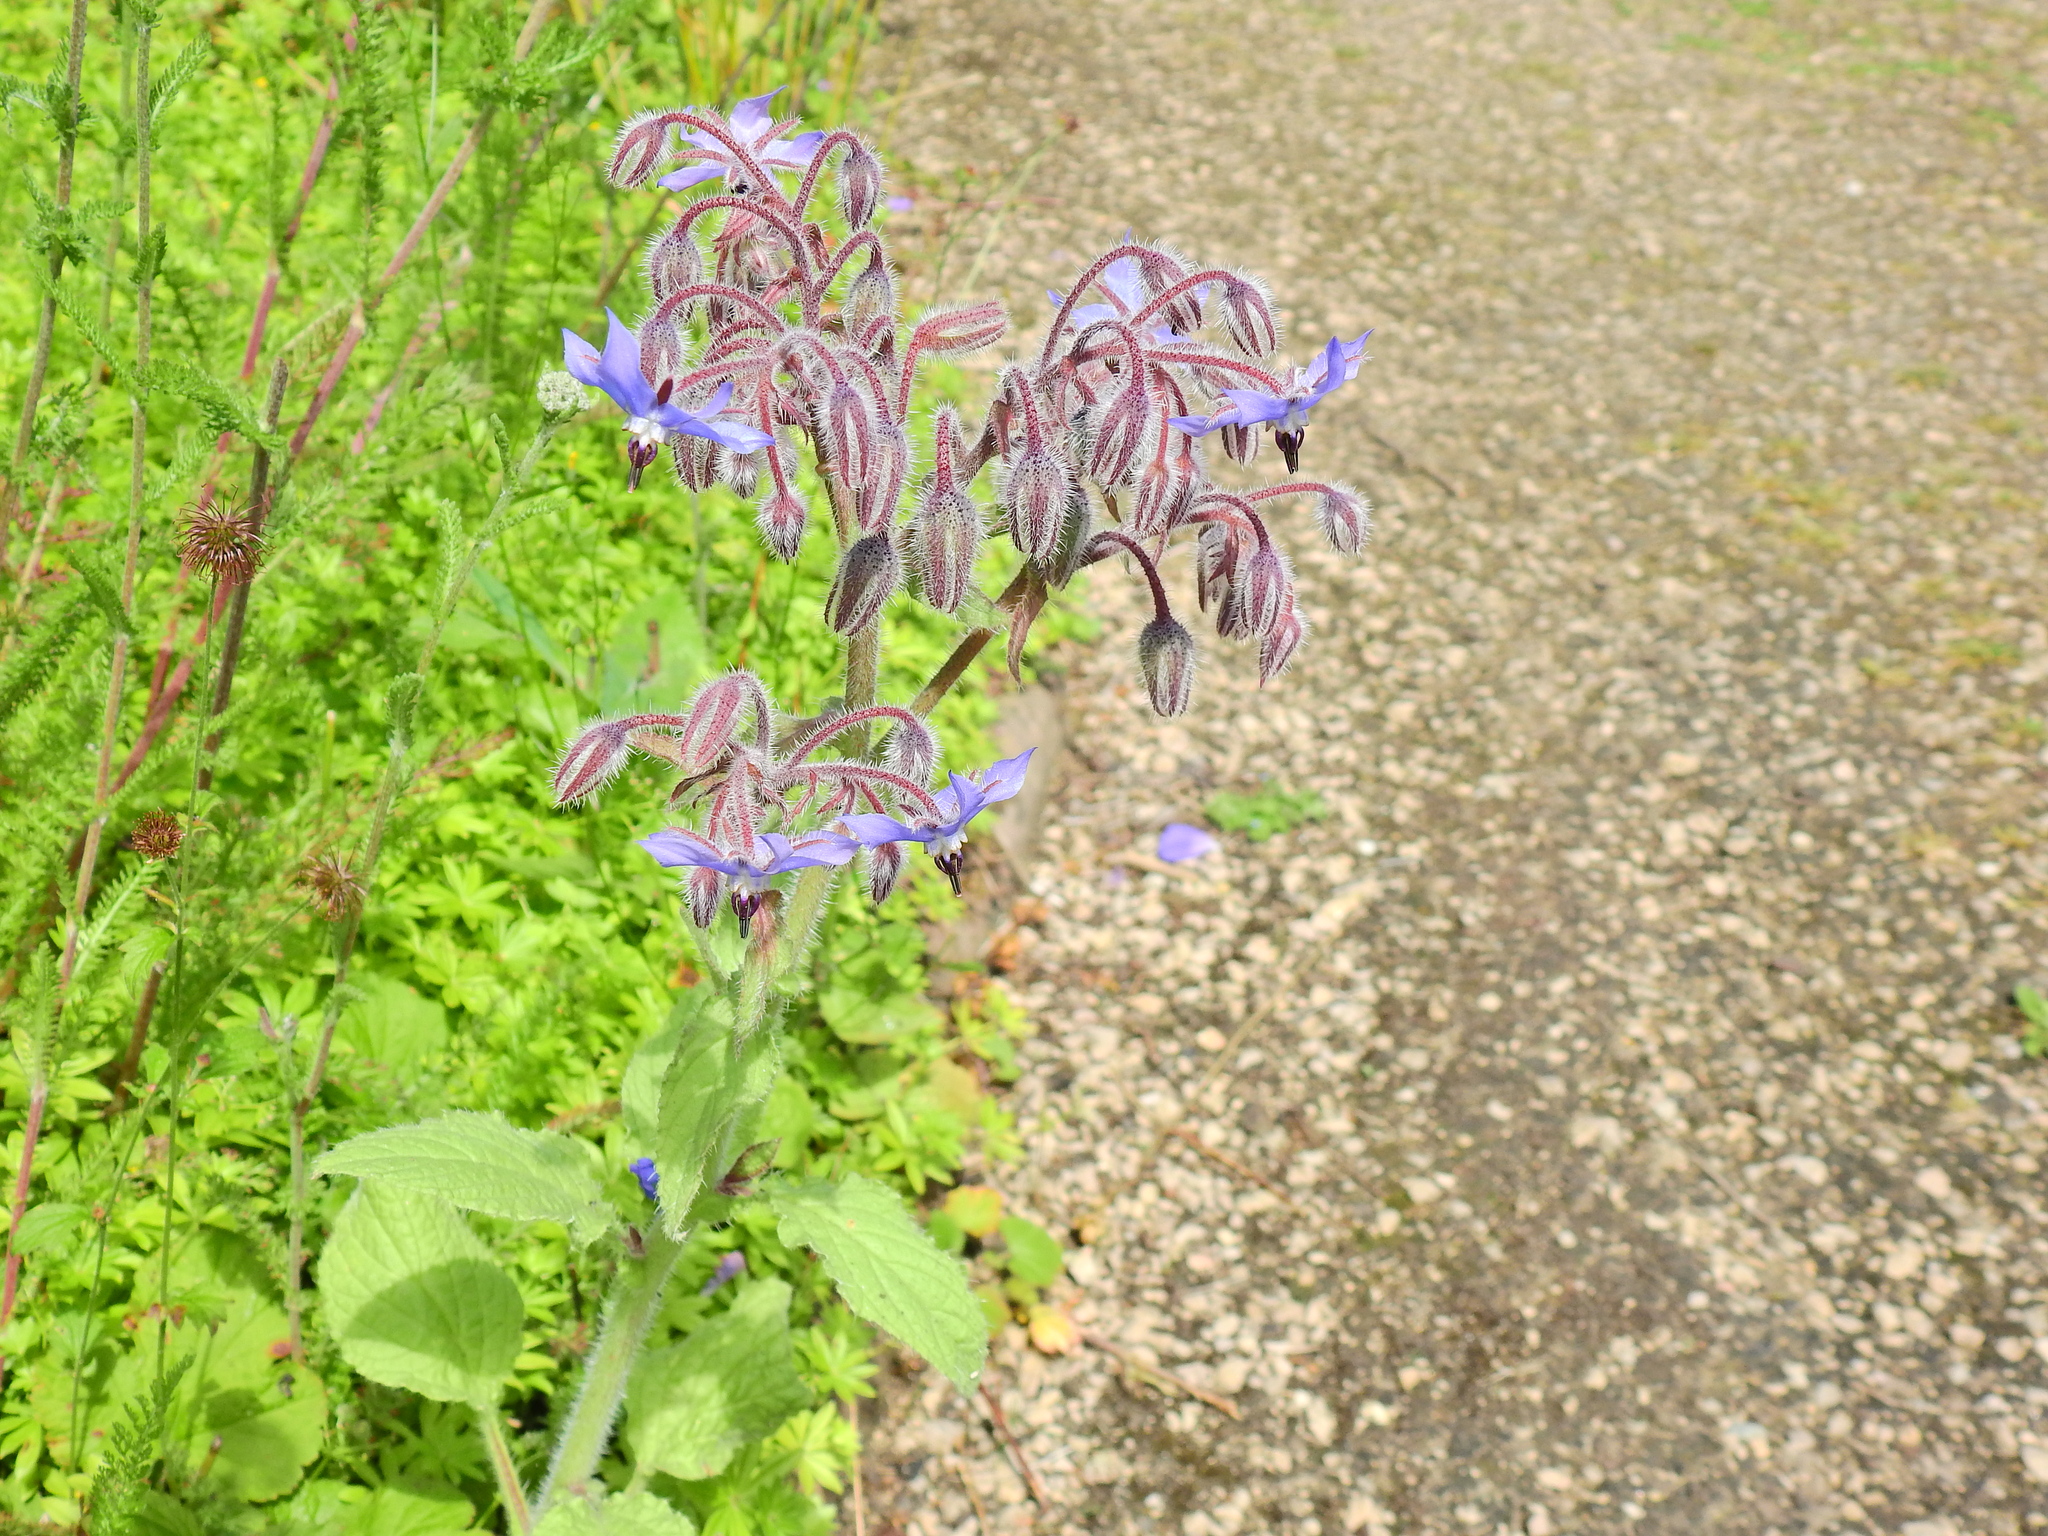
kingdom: Plantae
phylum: Tracheophyta
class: Magnoliopsida
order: Boraginales
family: Boraginaceae
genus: Borago
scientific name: Borago officinalis
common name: Borage
